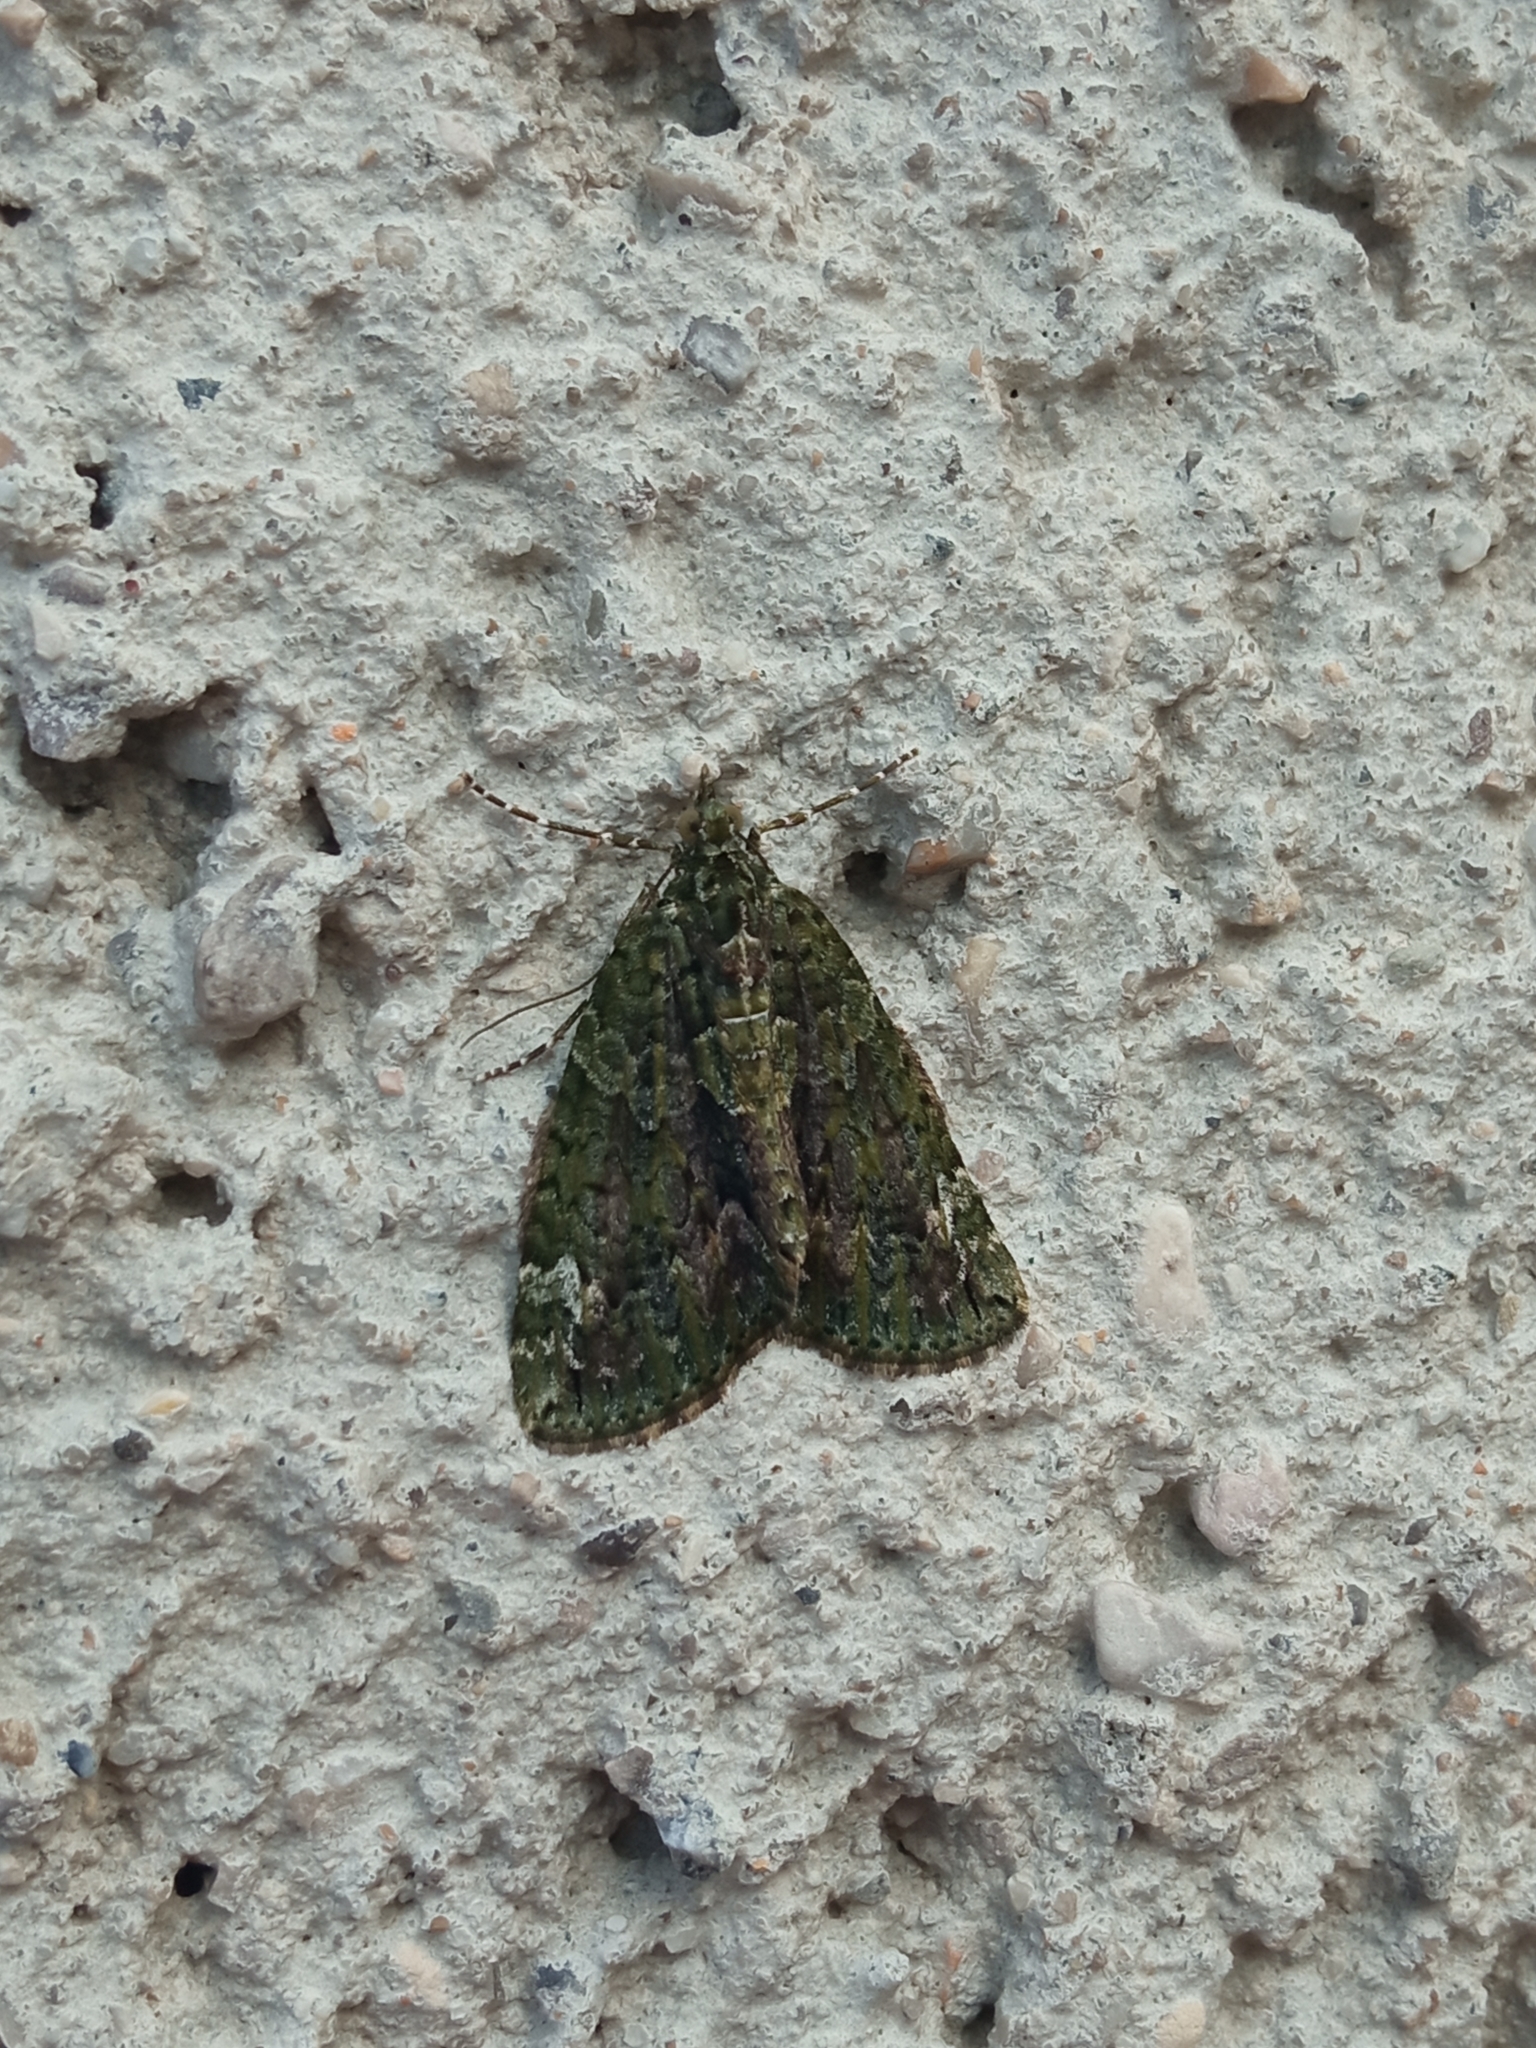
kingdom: Animalia
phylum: Arthropoda
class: Insecta
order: Lepidoptera
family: Geometridae
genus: Chloroclysta
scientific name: Chloroclysta siterata
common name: Red-green carpet
